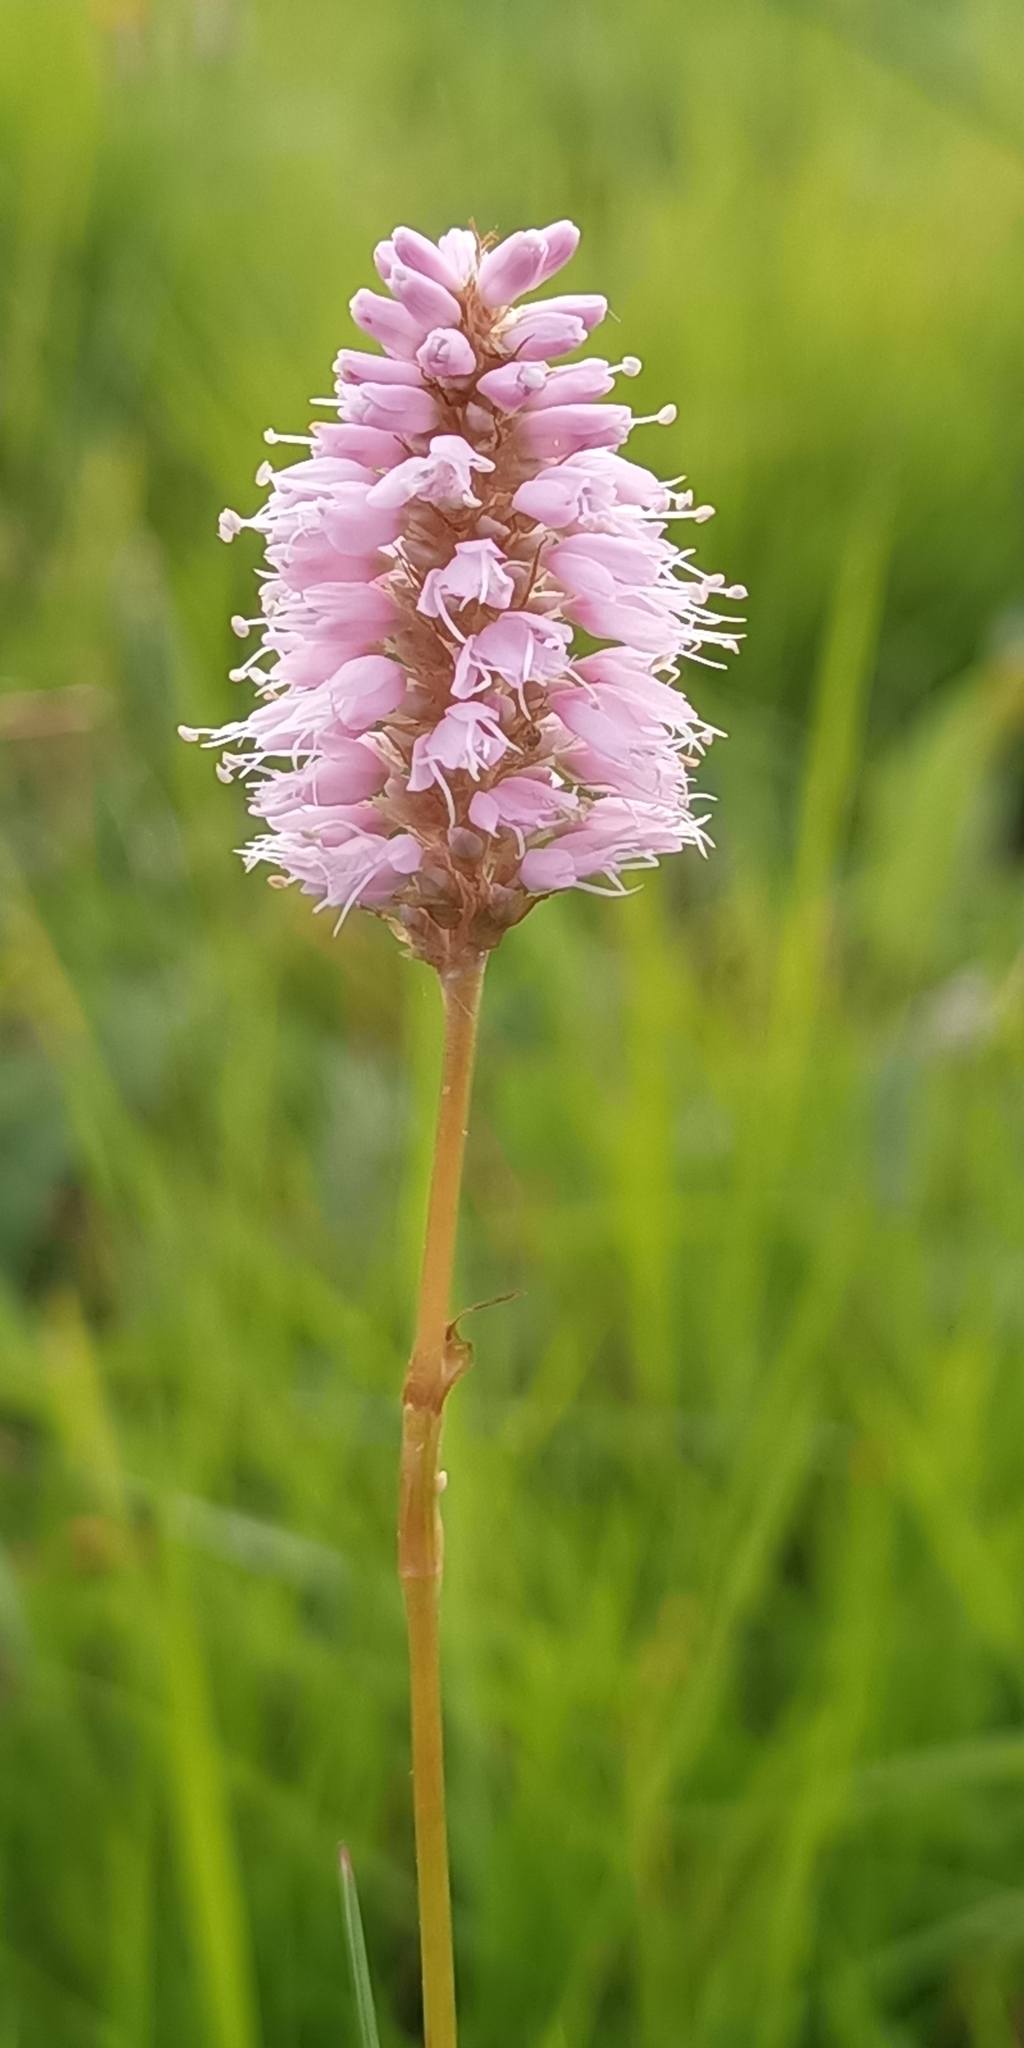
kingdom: Plantae
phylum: Tracheophyta
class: Magnoliopsida
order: Caryophyllales
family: Polygonaceae
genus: Bistorta
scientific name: Bistorta officinalis
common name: Common bistort
